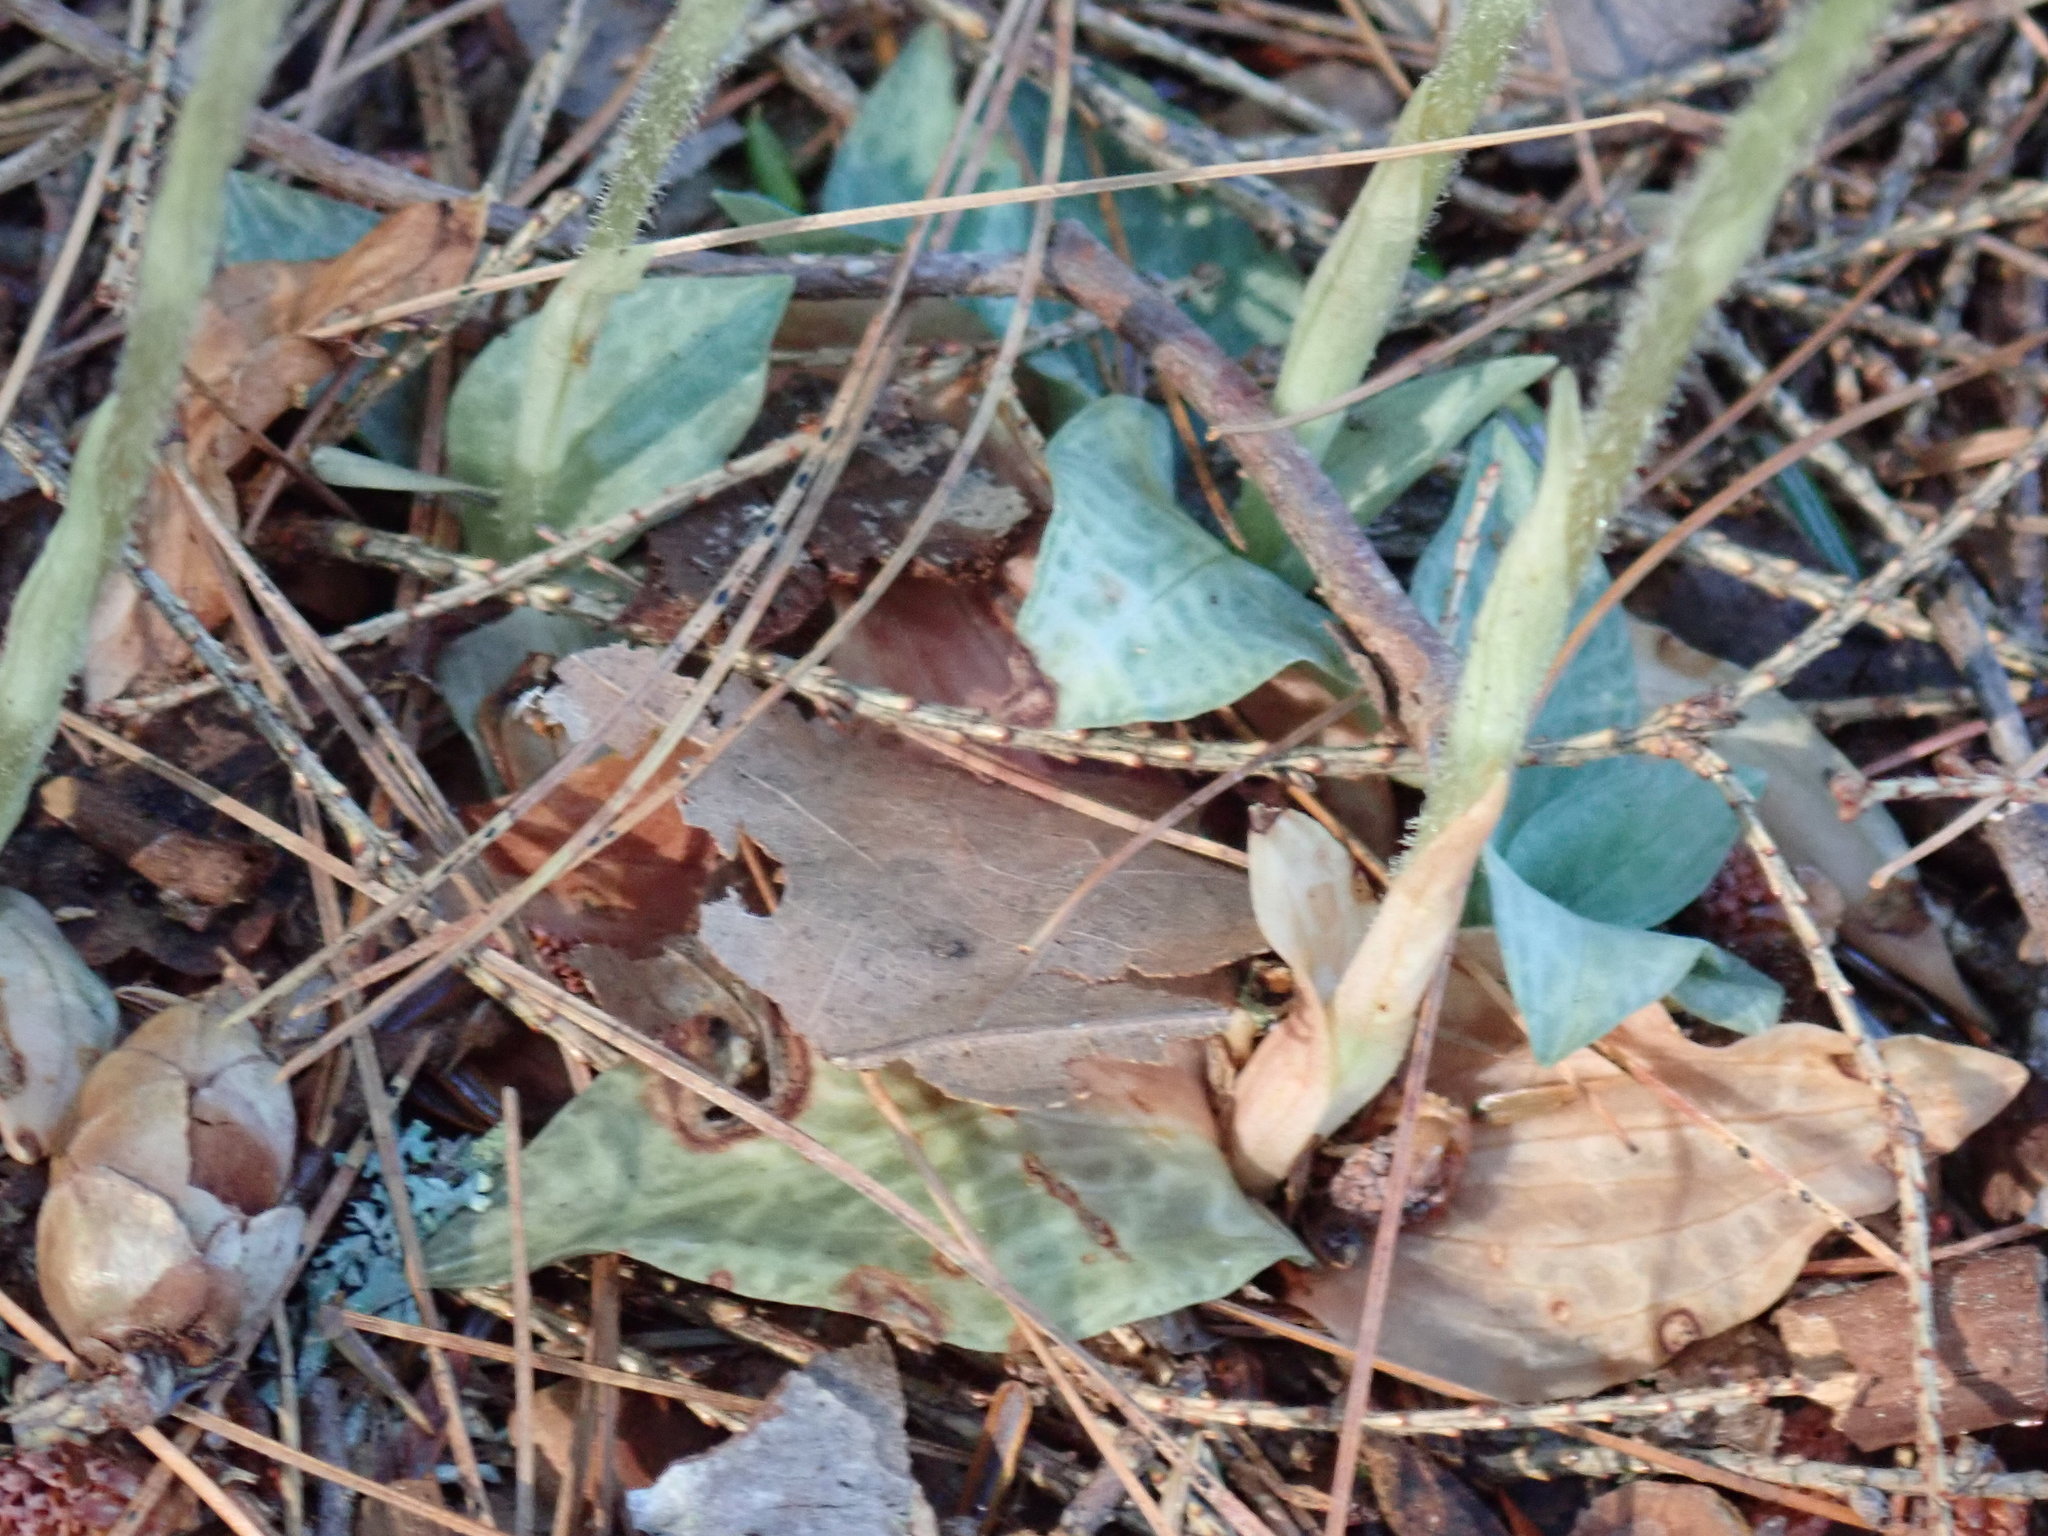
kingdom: Plantae
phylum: Tracheophyta
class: Liliopsida
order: Asparagales
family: Orchidaceae
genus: Goodyera
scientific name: Goodyera tesselata
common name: Checkered rattlesnake-plantain
